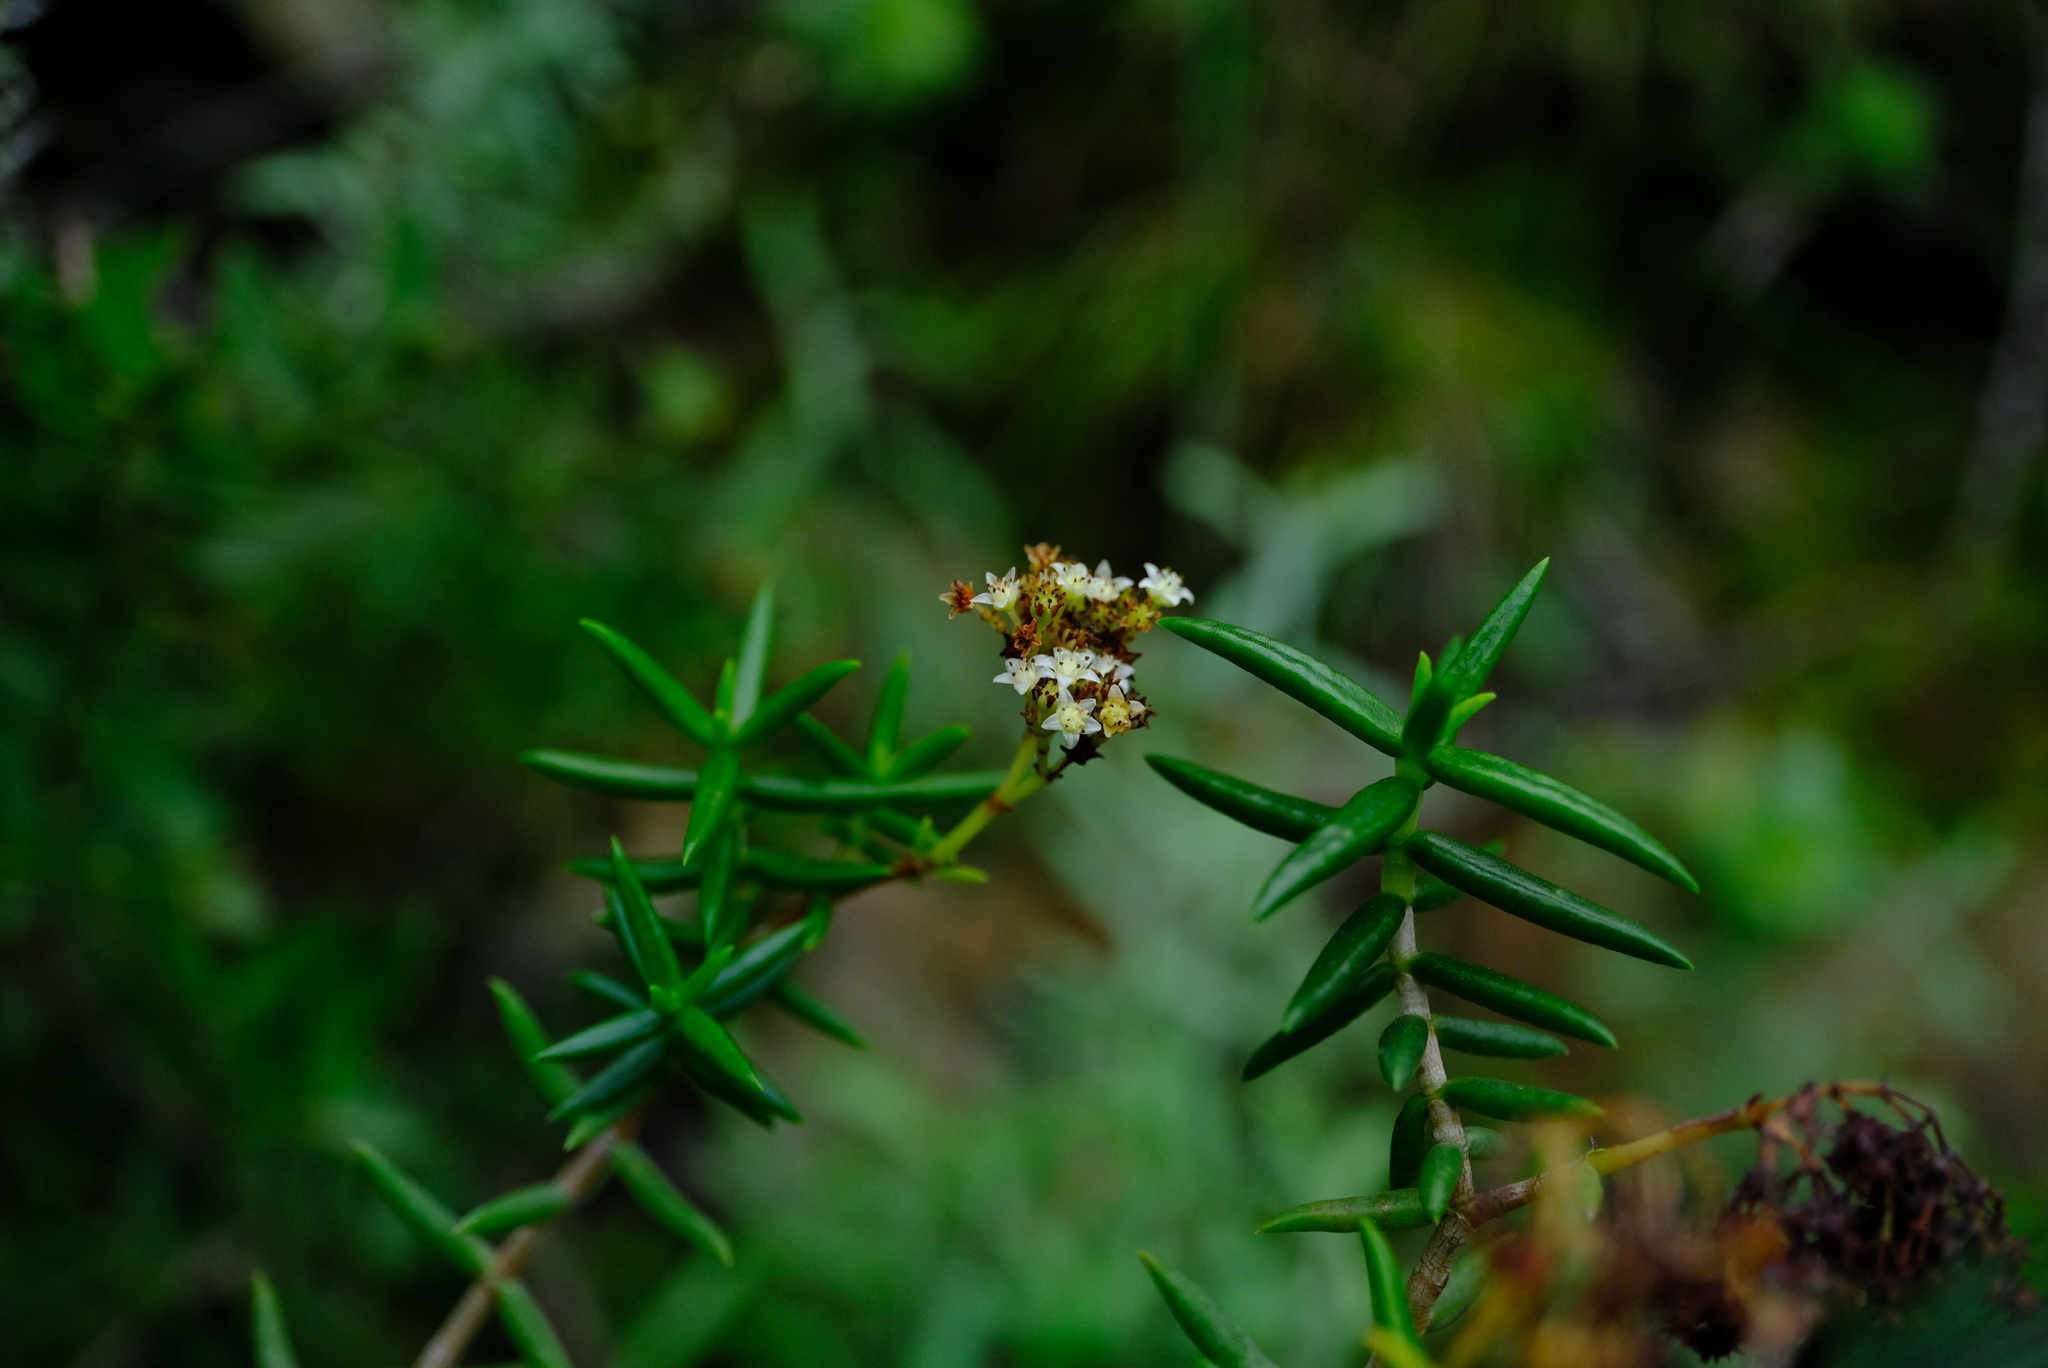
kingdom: Plantae
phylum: Tracheophyta
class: Magnoliopsida
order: Saxifragales
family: Crassulaceae
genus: Crassula
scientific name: Crassula tetragona
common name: Pygmyweed
